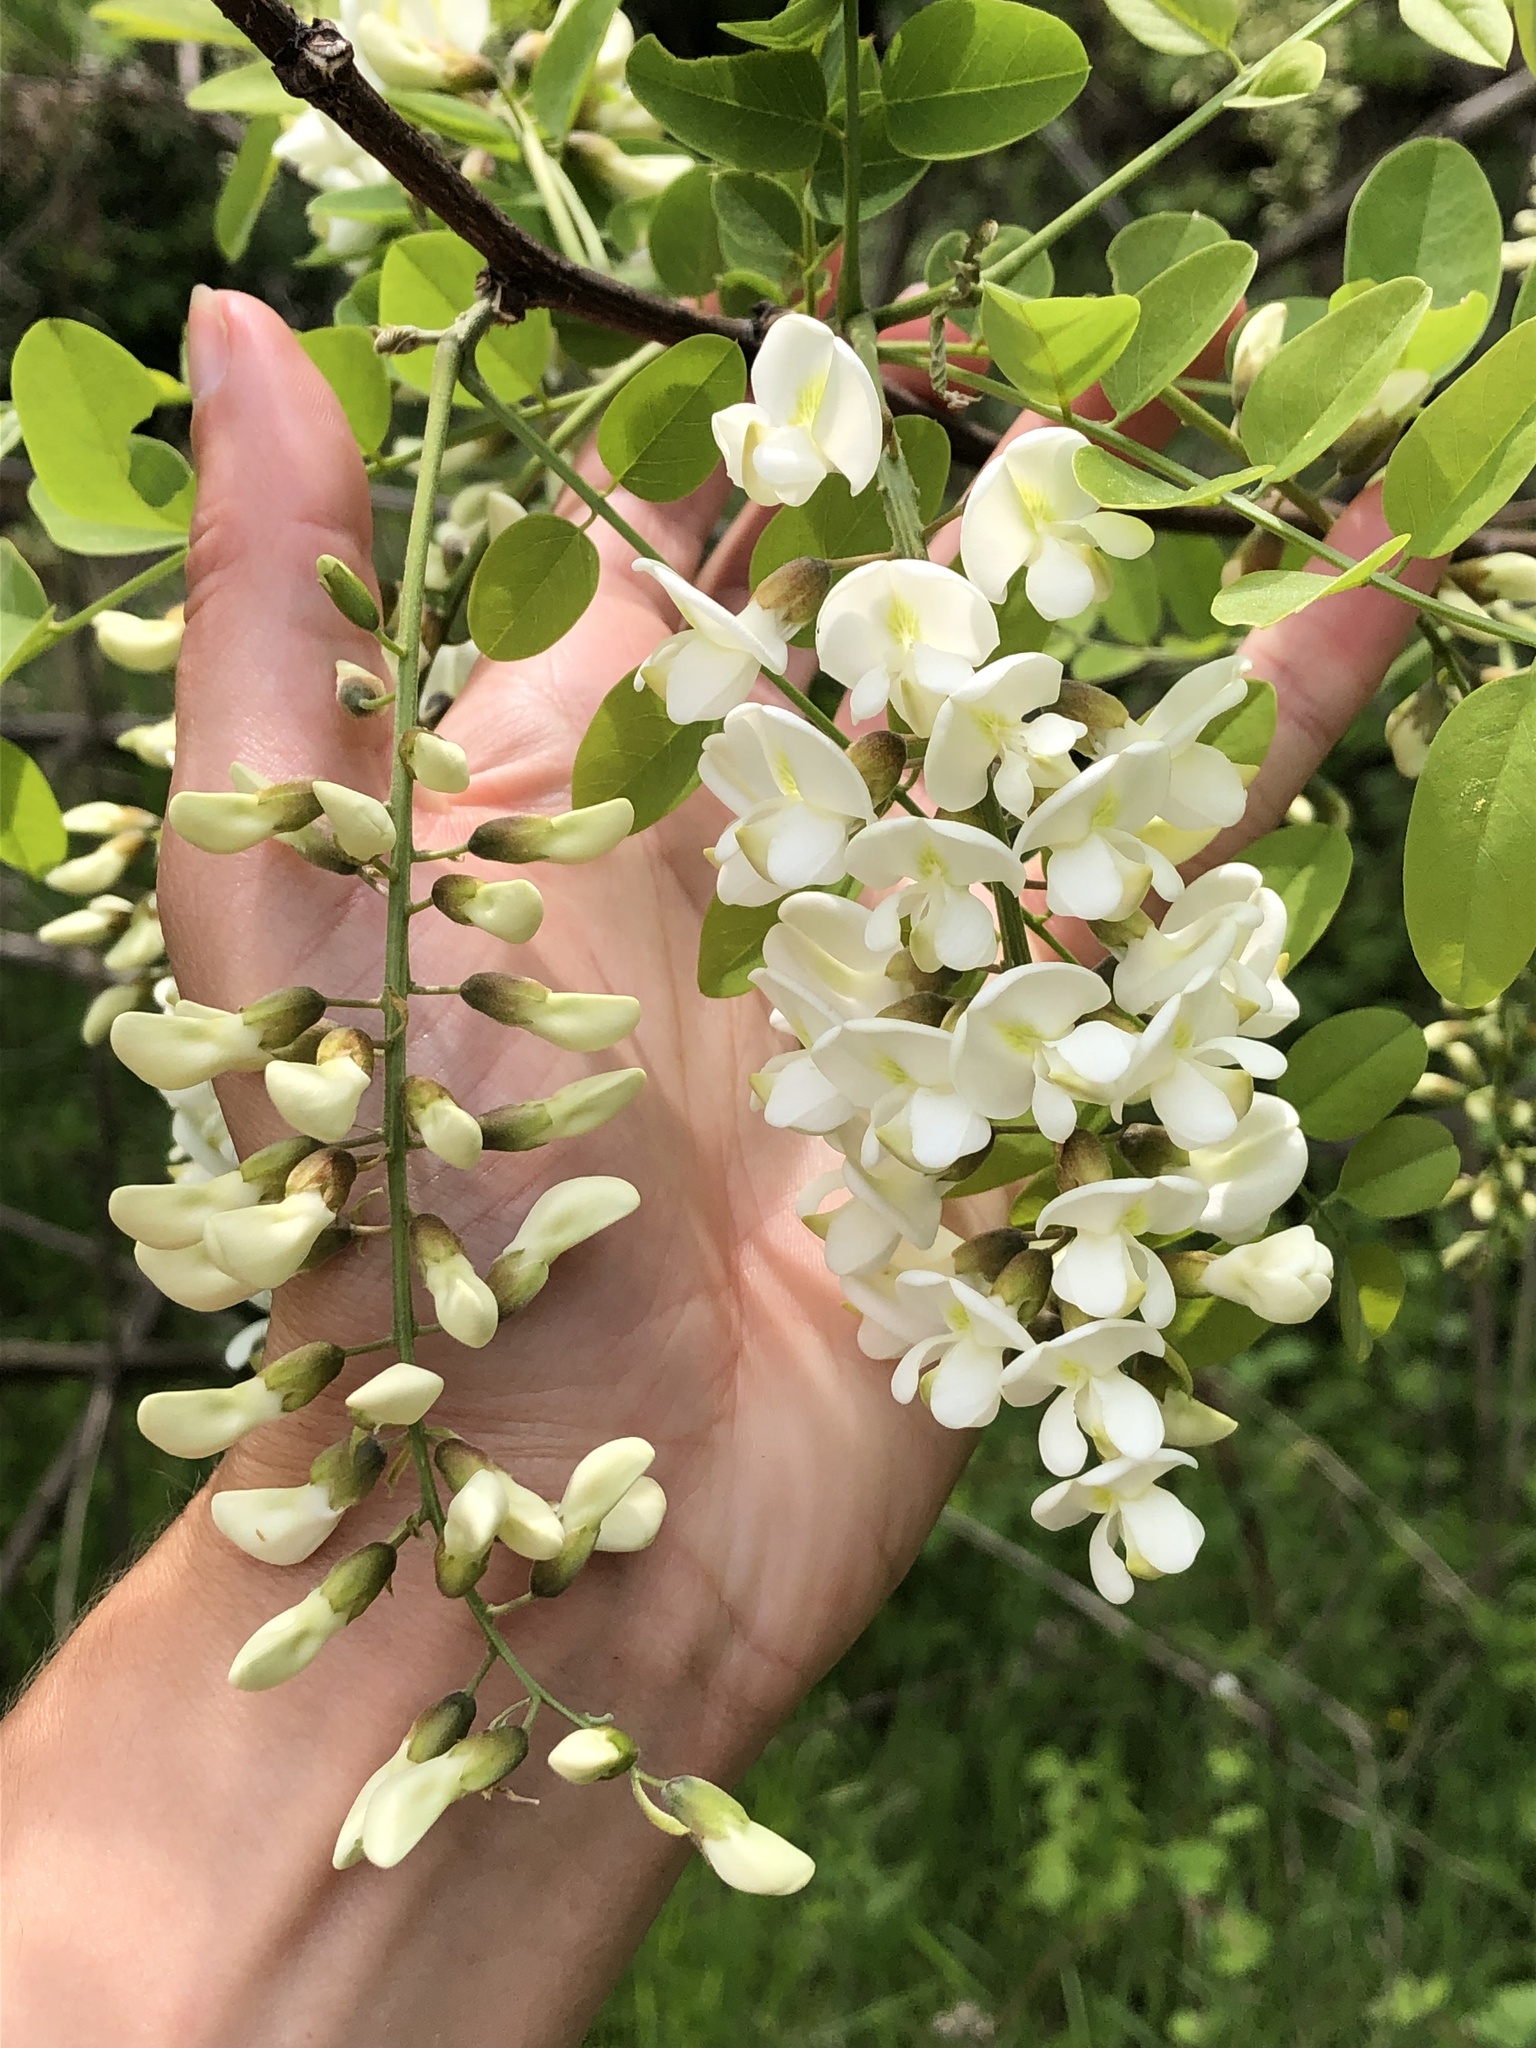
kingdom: Plantae
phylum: Tracheophyta
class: Magnoliopsida
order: Fabales
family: Fabaceae
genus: Robinia
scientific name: Robinia pseudoacacia
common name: Black locust
